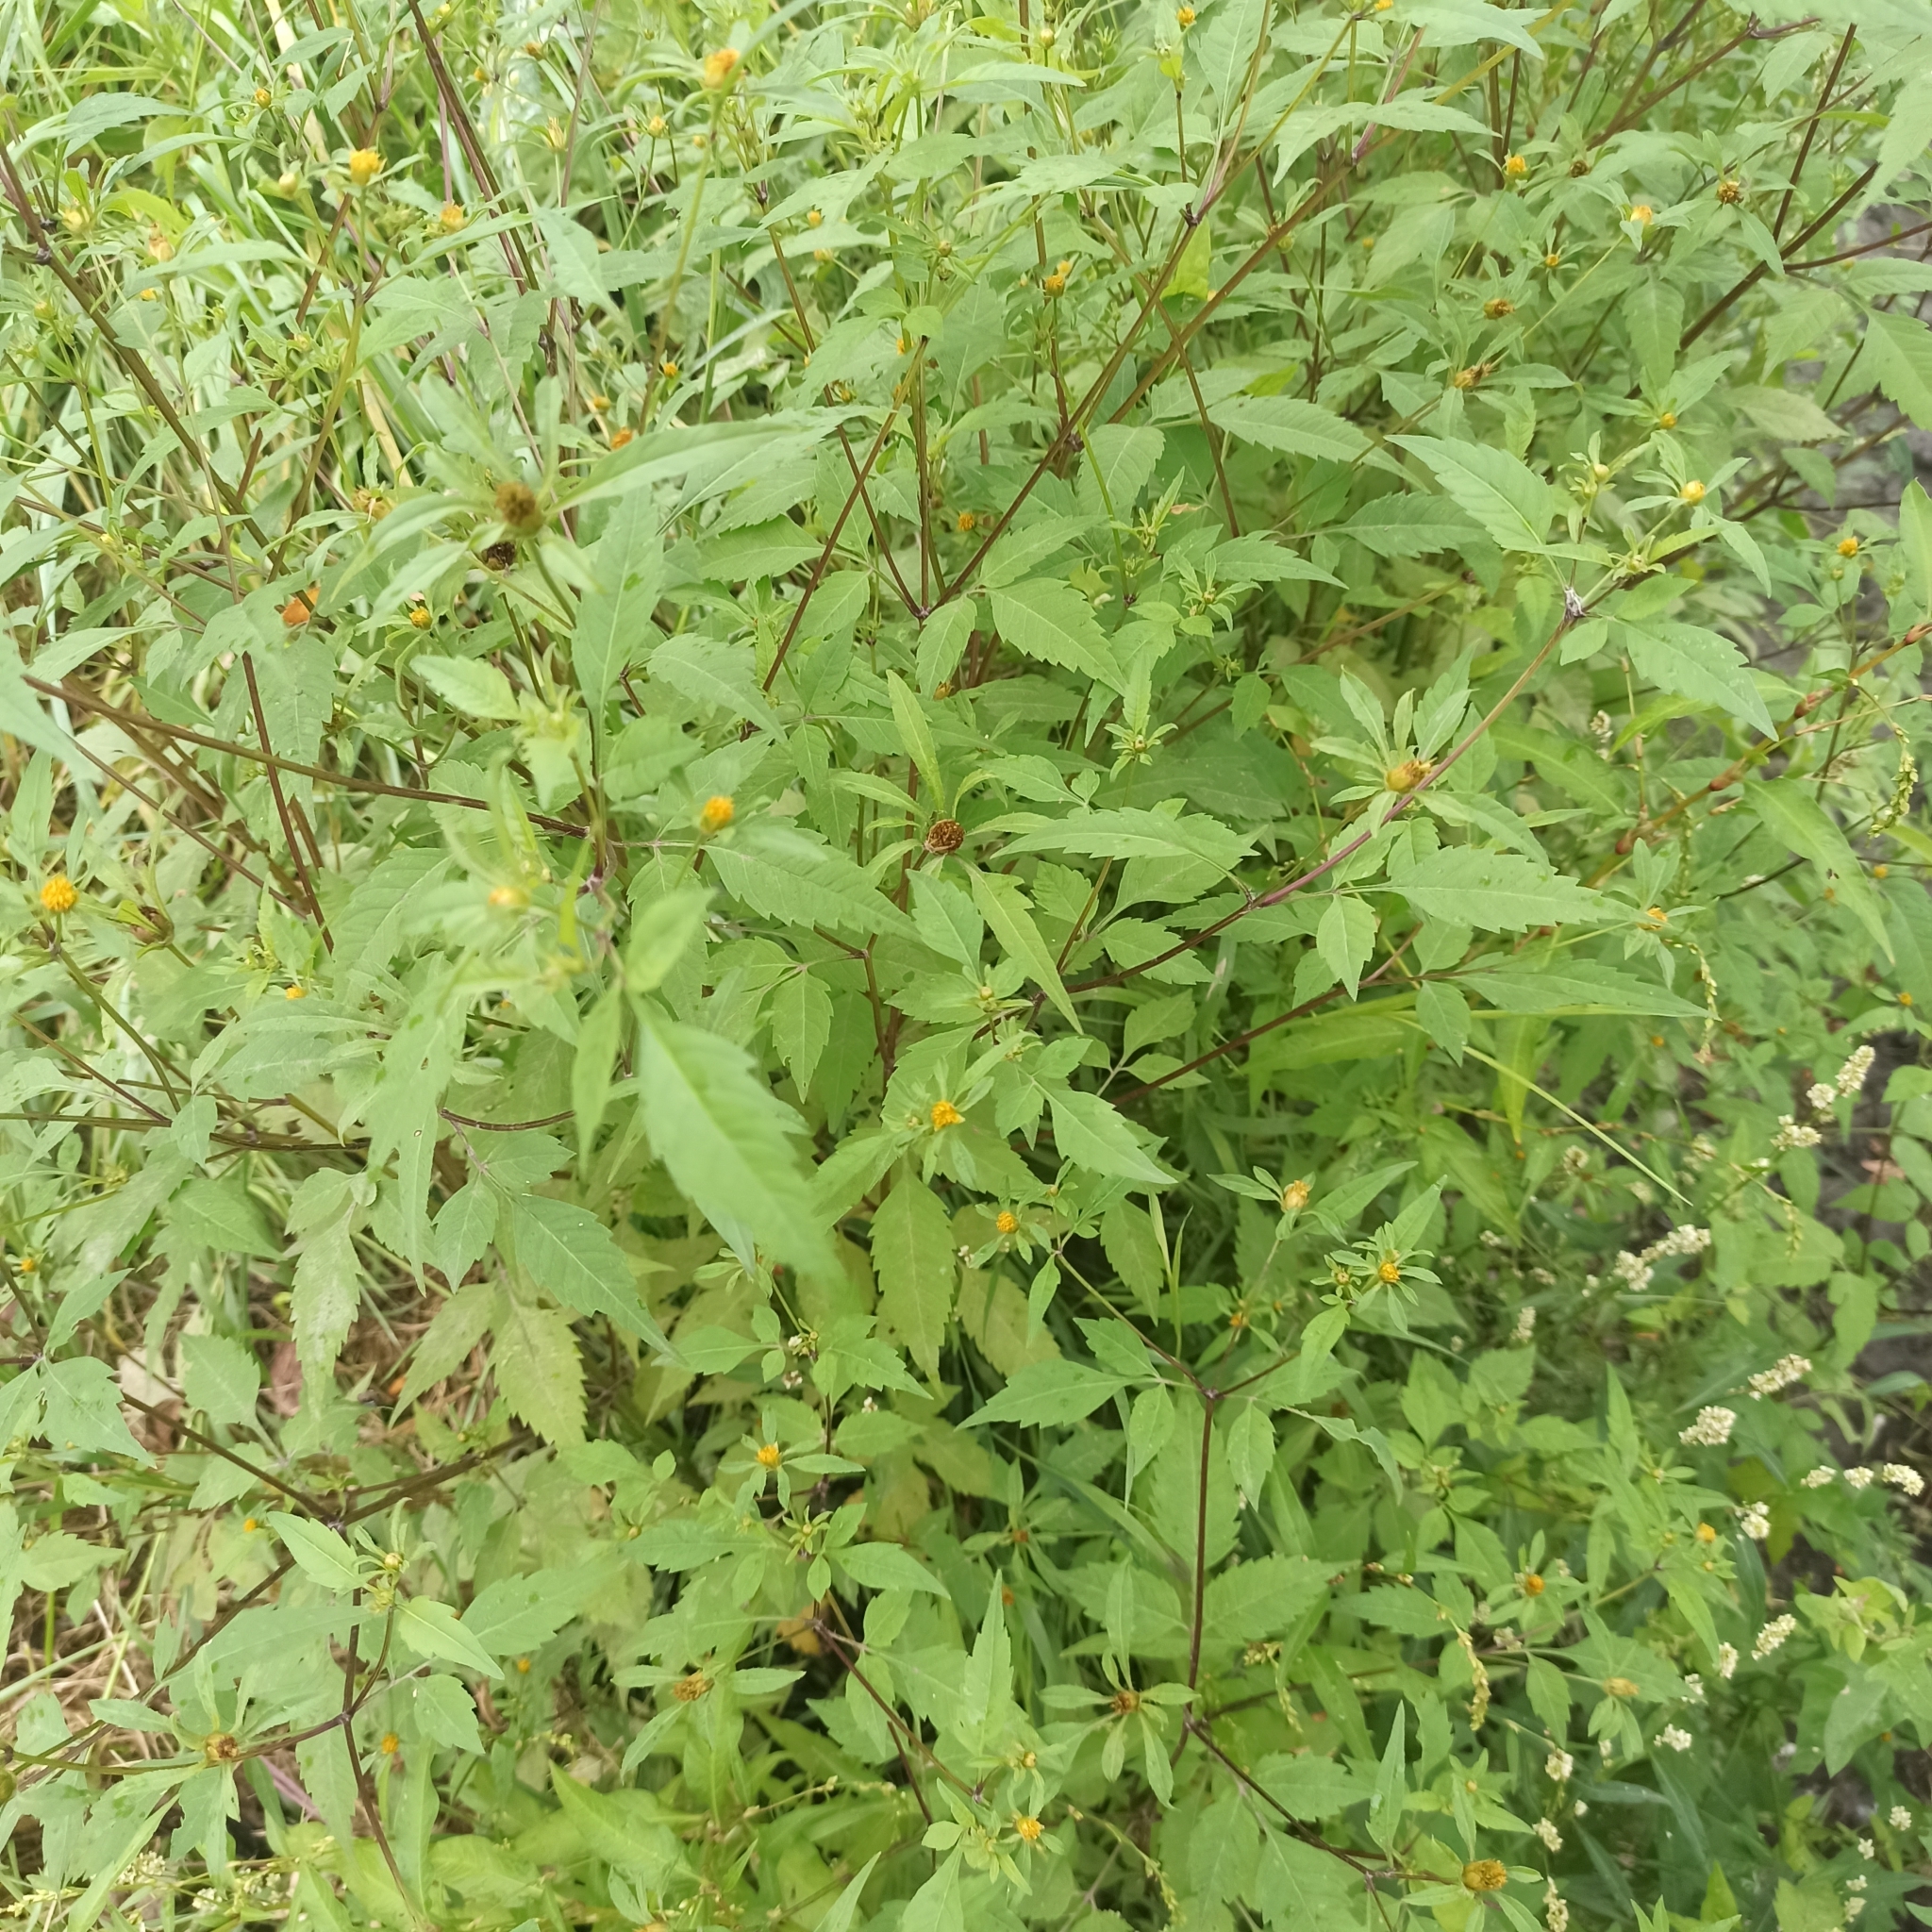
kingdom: Plantae
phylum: Tracheophyta
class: Magnoliopsida
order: Asterales
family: Asteraceae
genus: Bidens
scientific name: Bidens frondosa
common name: Beggarticks
